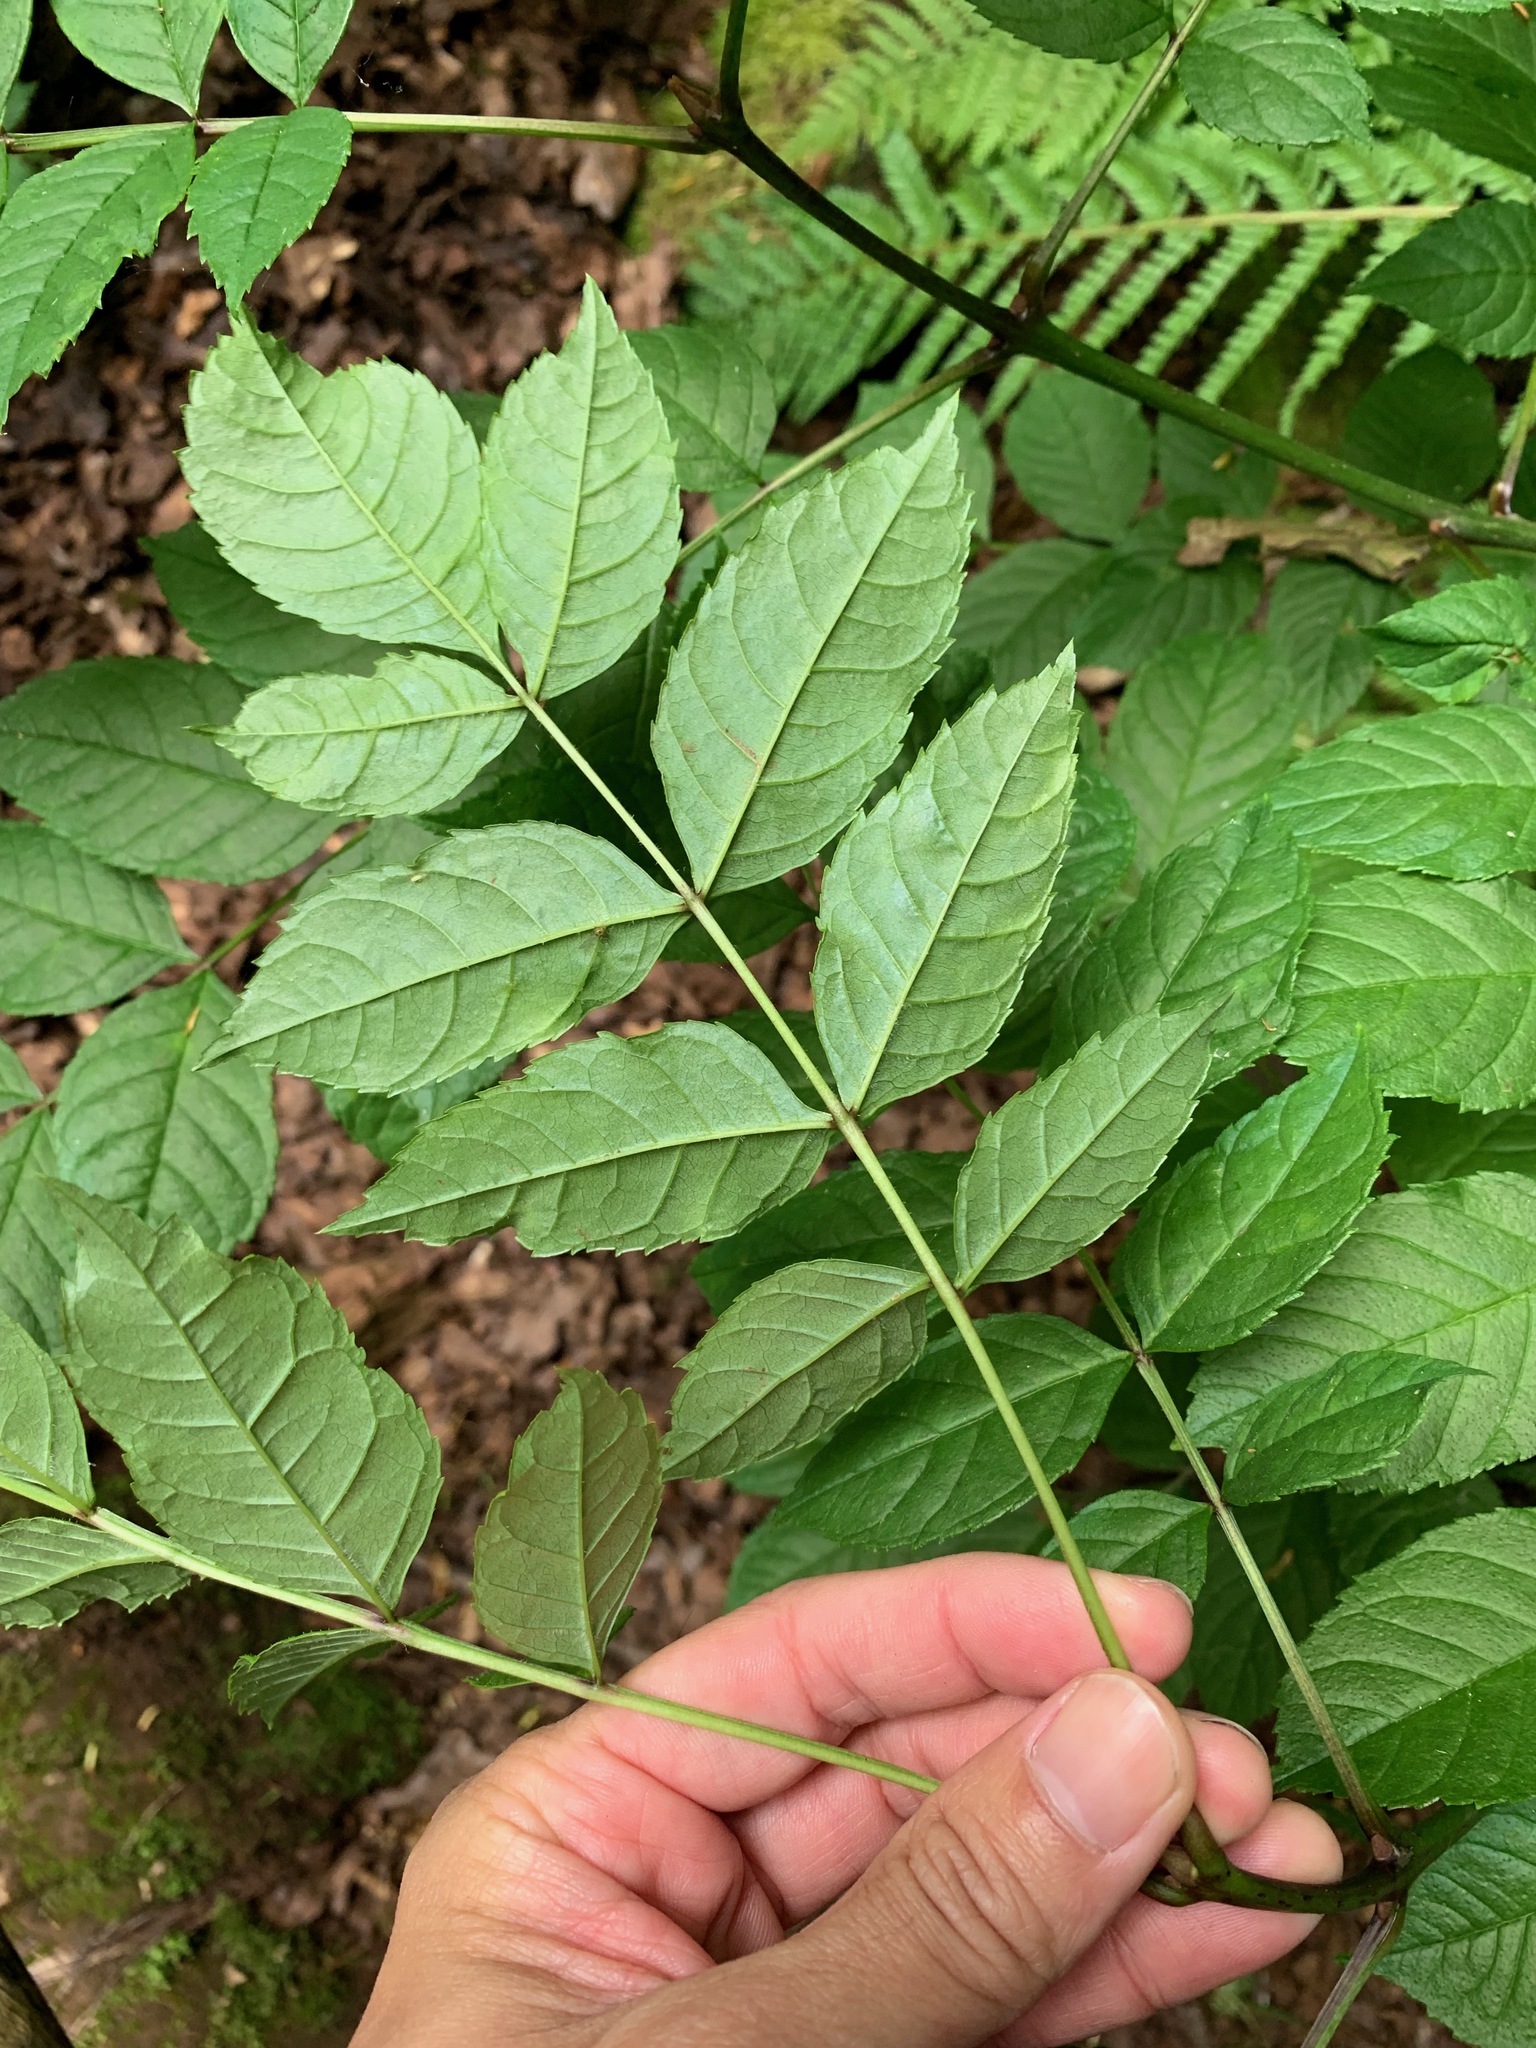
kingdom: Plantae
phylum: Tracheophyta
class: Magnoliopsida
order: Lamiales
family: Oleaceae
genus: Fraxinus
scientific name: Fraxinus excelsior
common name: European ash
